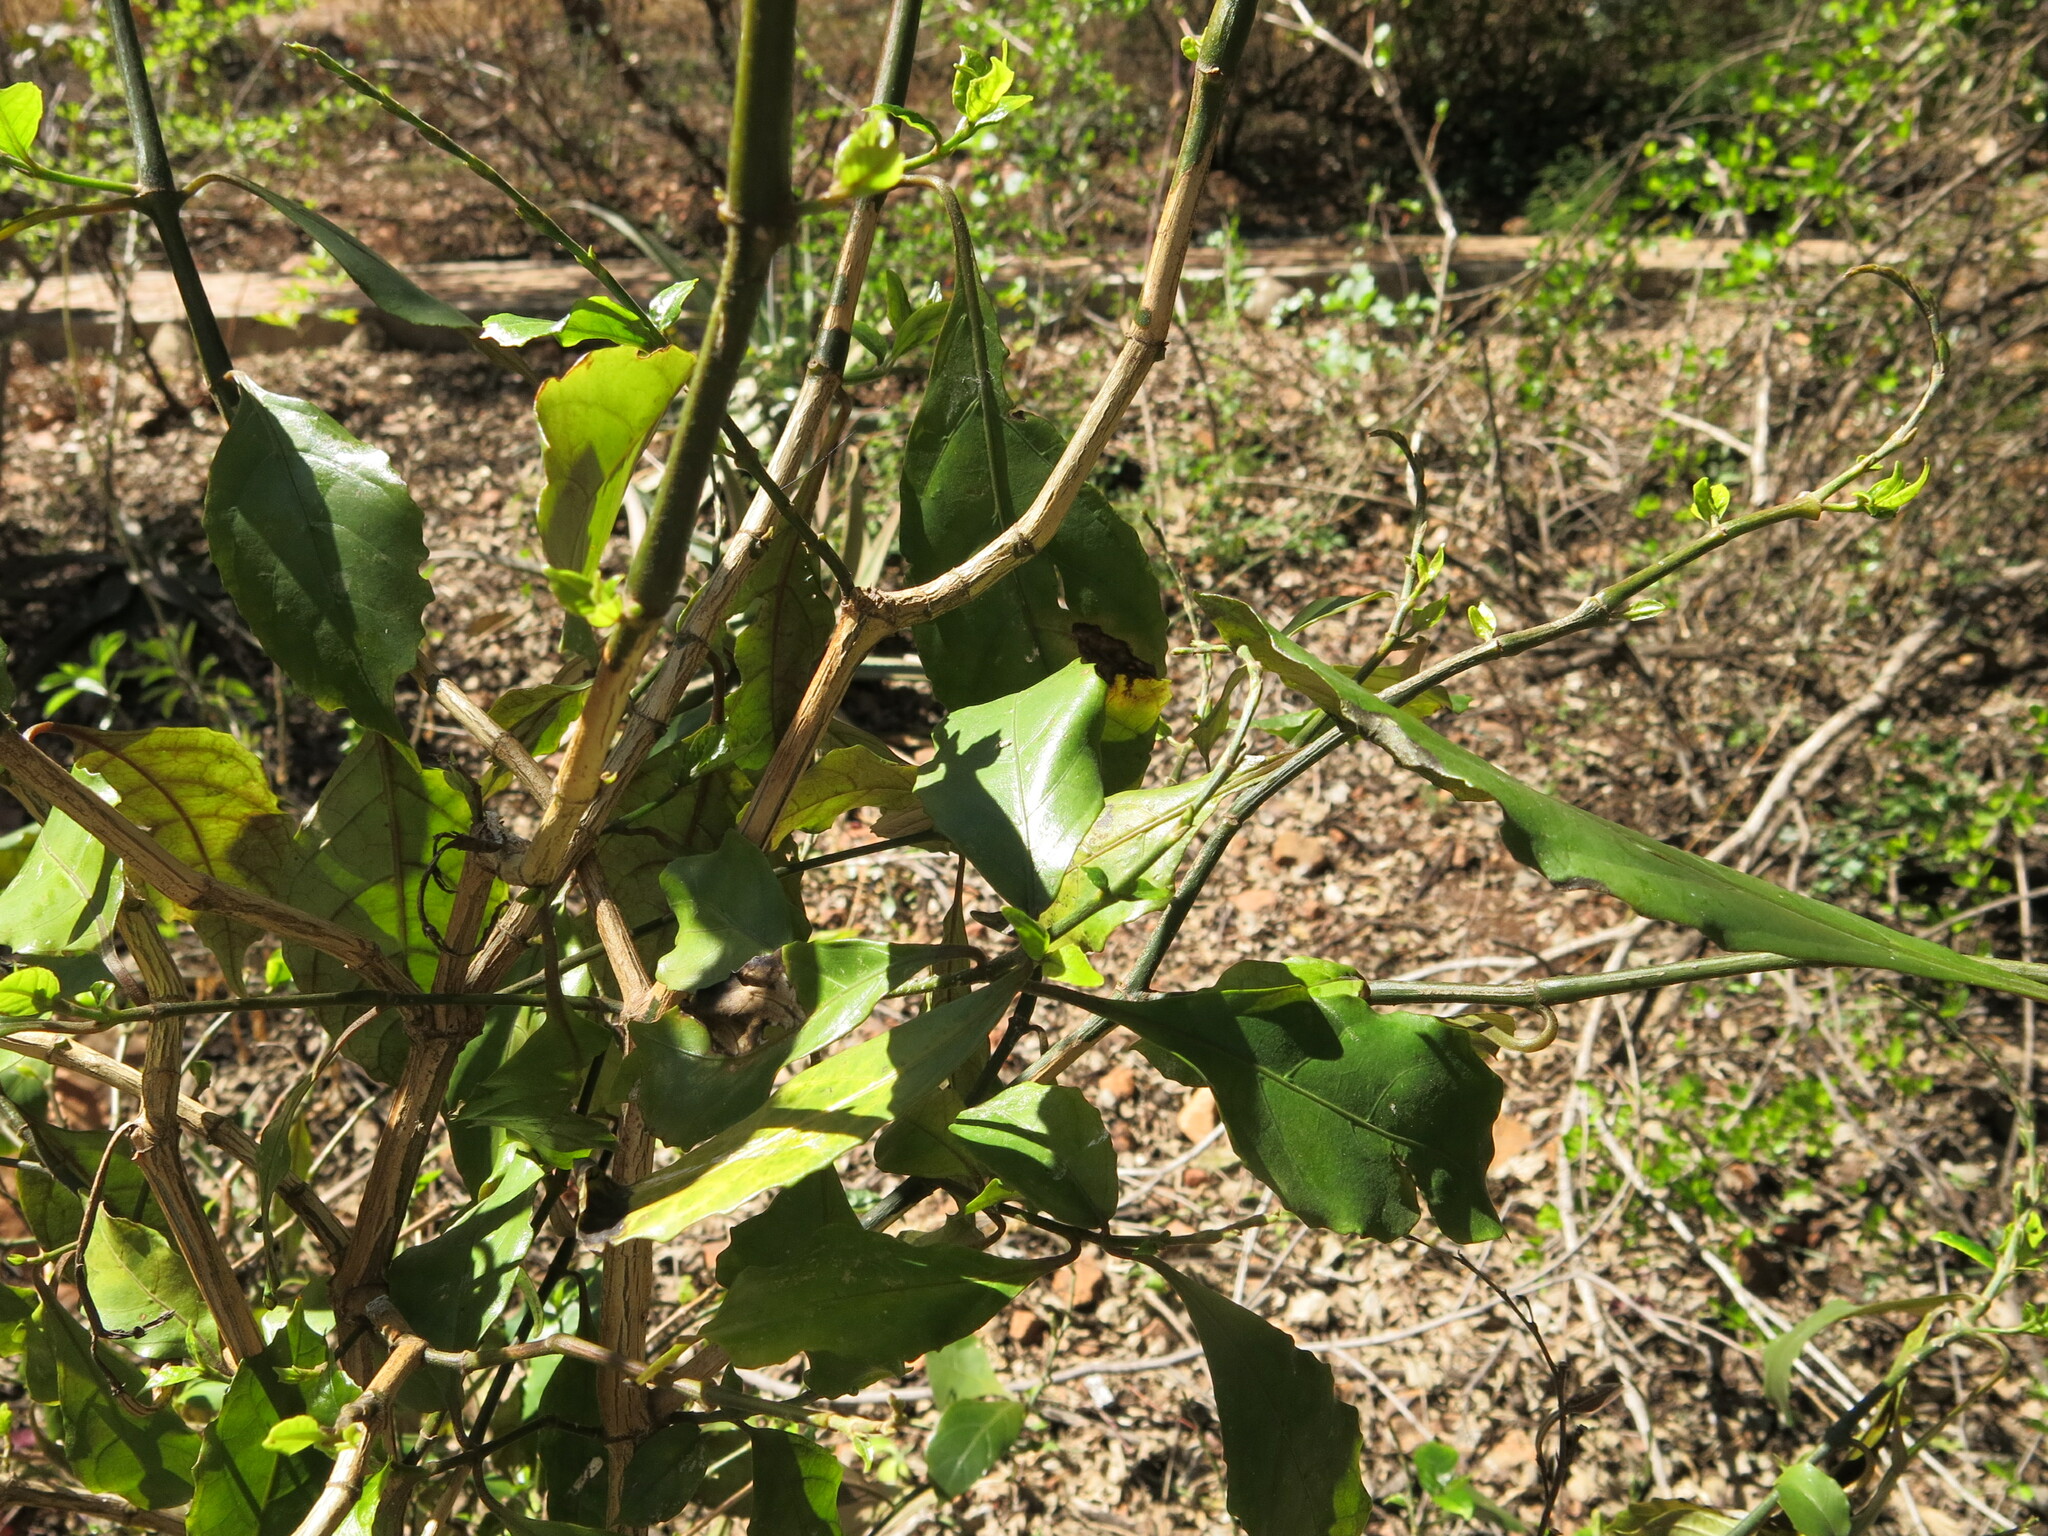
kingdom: Plantae
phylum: Tracheophyta
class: Magnoliopsida
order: Lamiales
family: Acanthaceae
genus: Mackaya
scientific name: Mackaya bella
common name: Forest bell-bush
